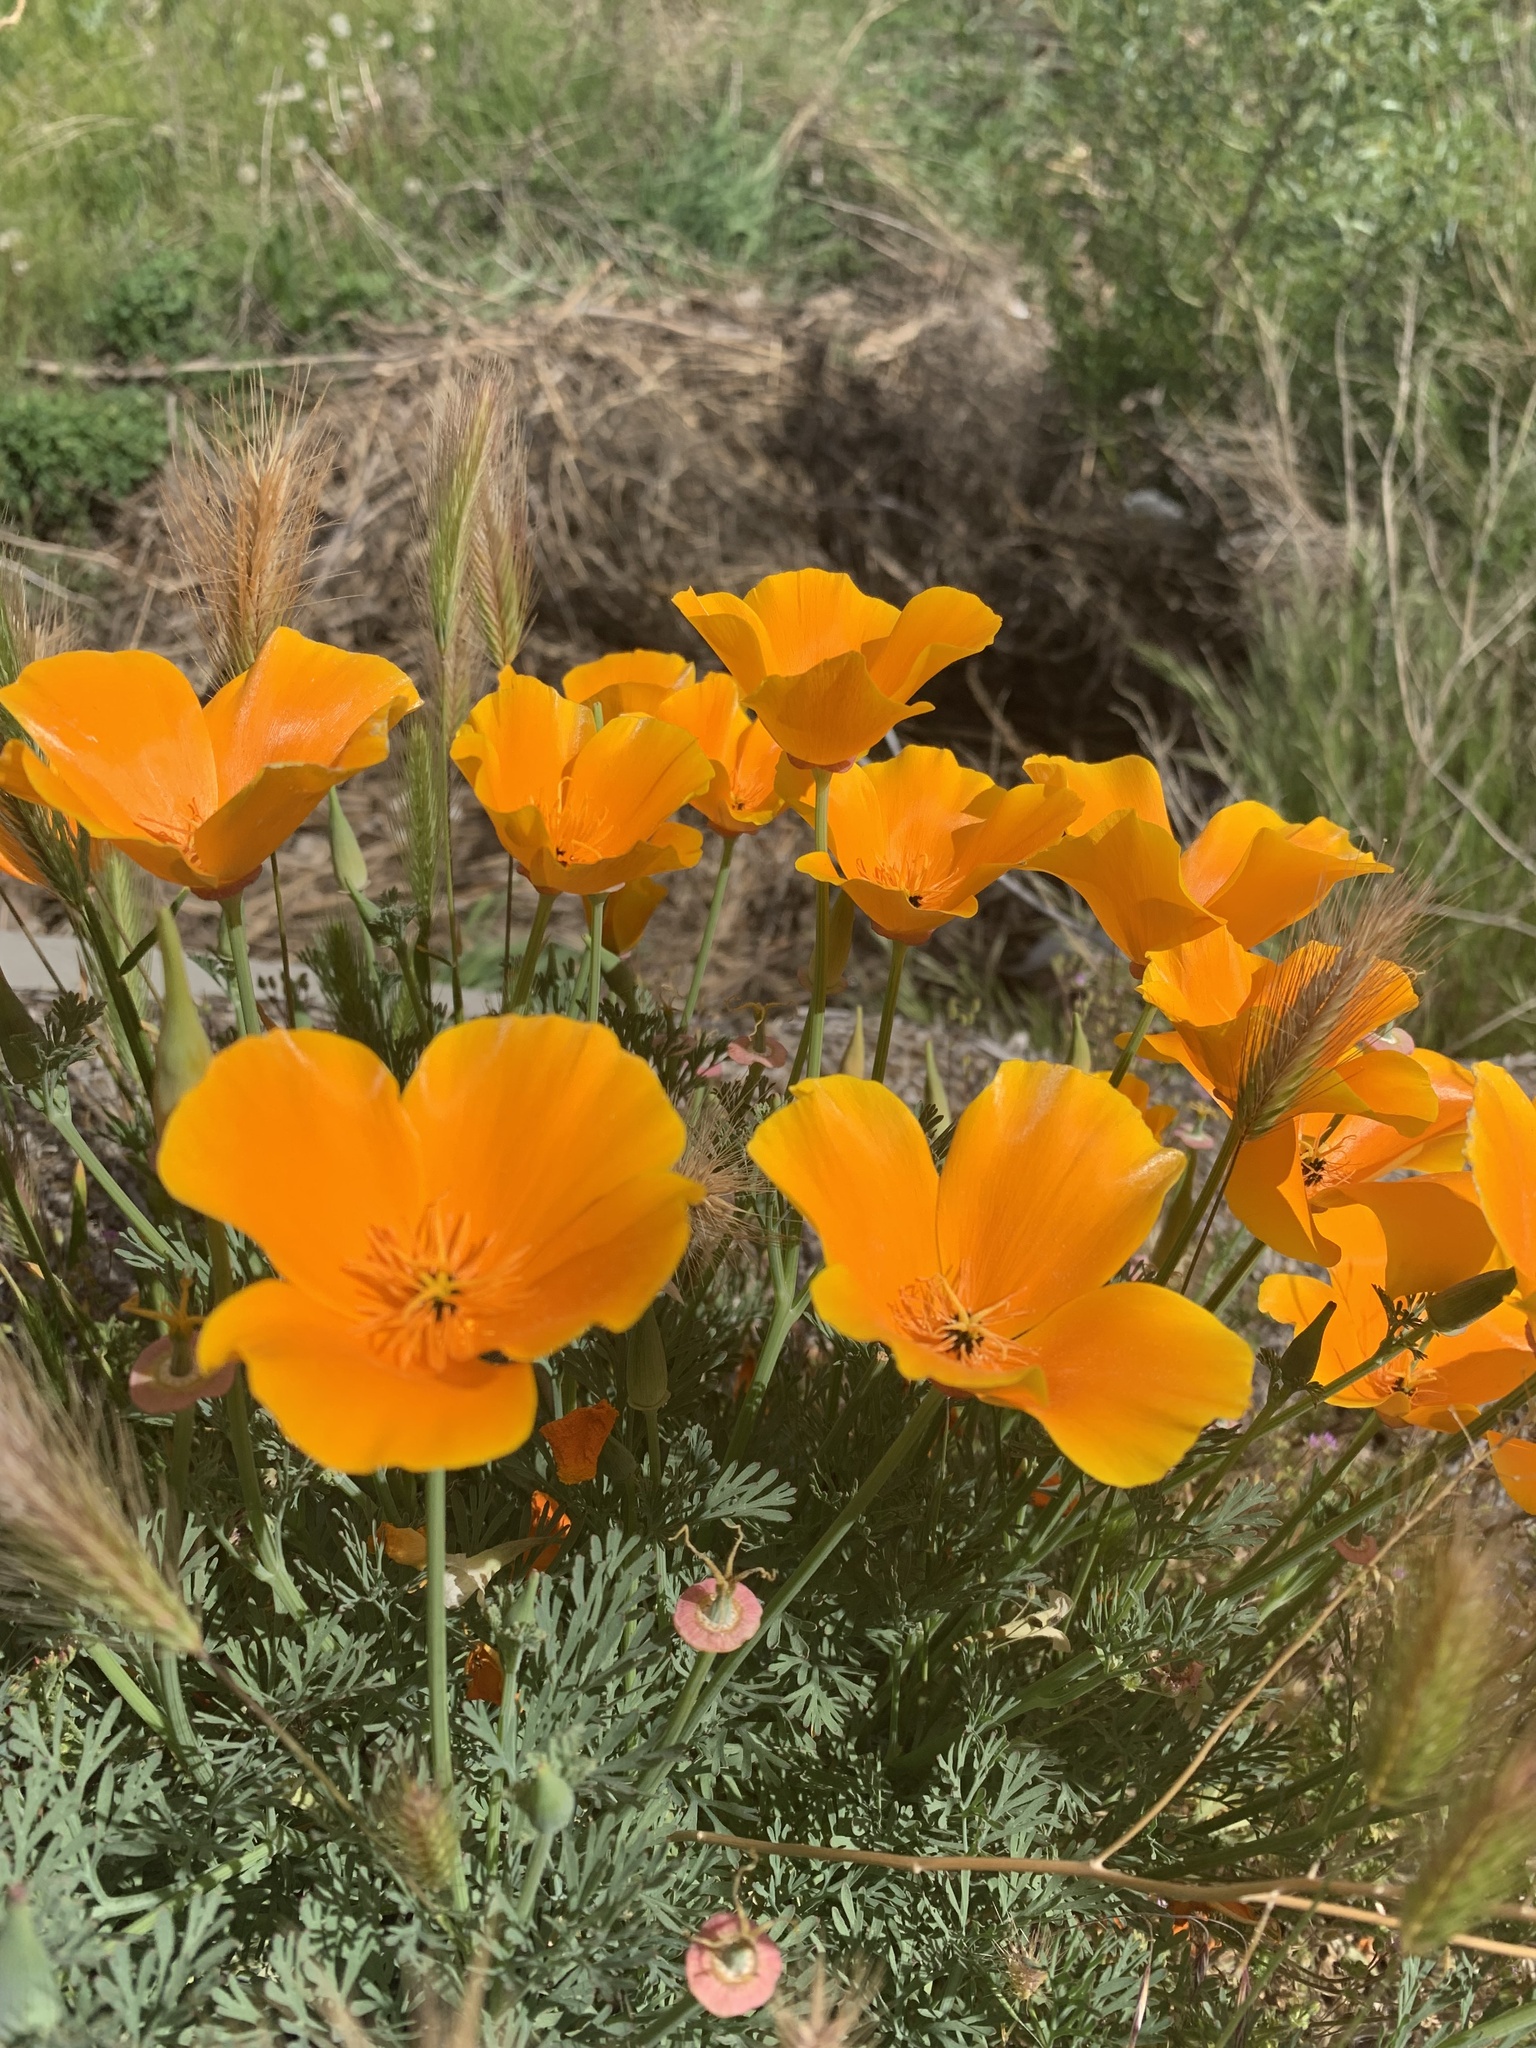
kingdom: Plantae
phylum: Tracheophyta
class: Magnoliopsida
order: Ranunculales
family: Papaveraceae
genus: Eschscholzia
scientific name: Eschscholzia californica
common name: California poppy
